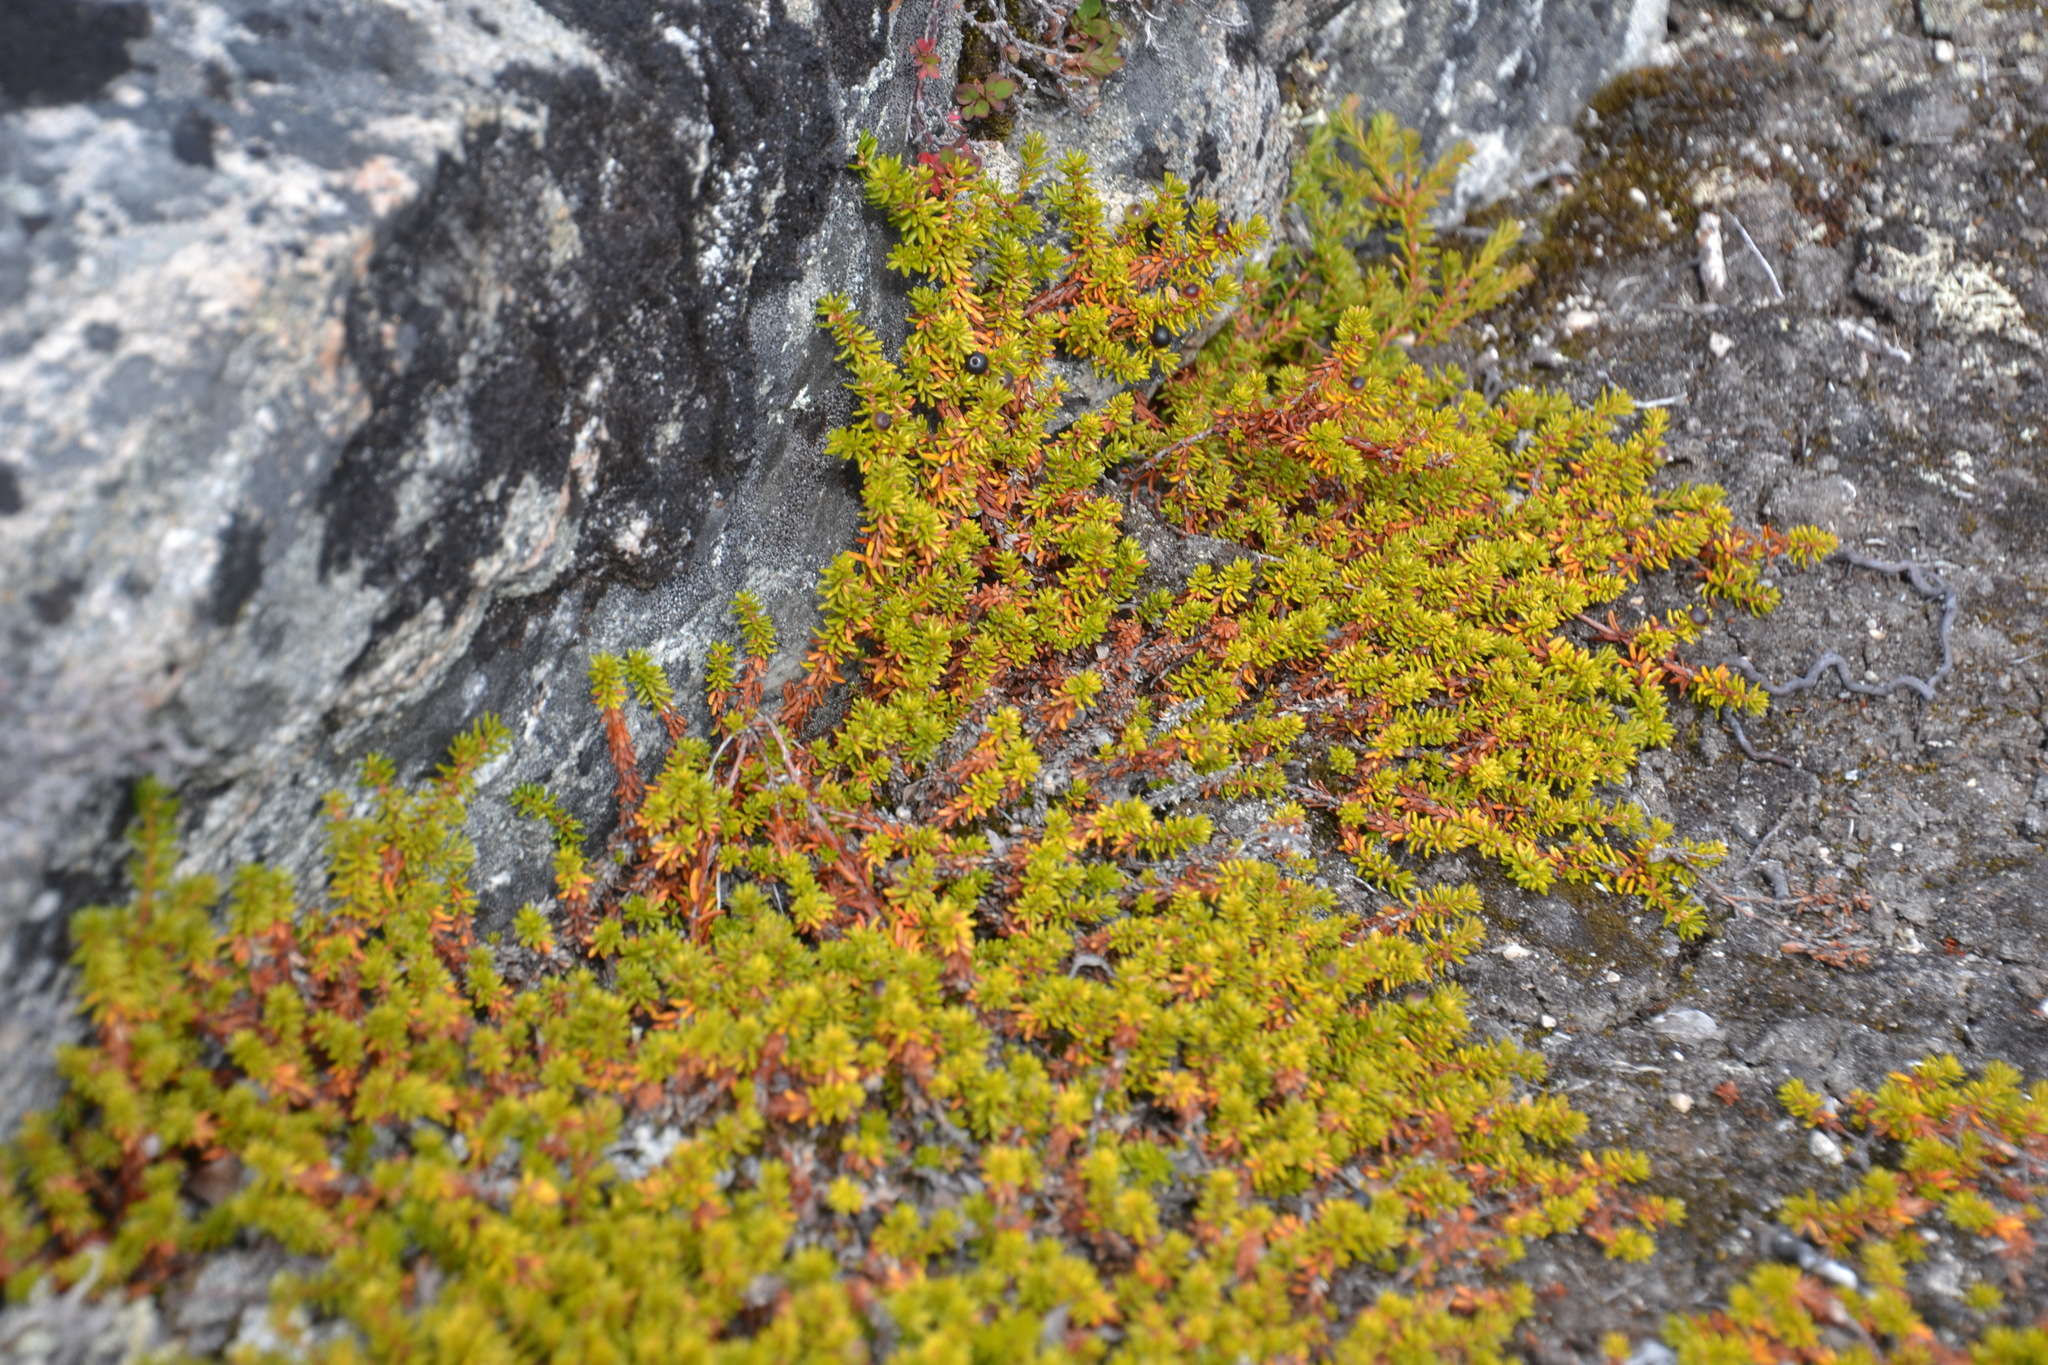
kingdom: Plantae
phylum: Tracheophyta
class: Magnoliopsida
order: Ericales
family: Ericaceae
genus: Empetrum
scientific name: Empetrum nigrum
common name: Black crowberry
